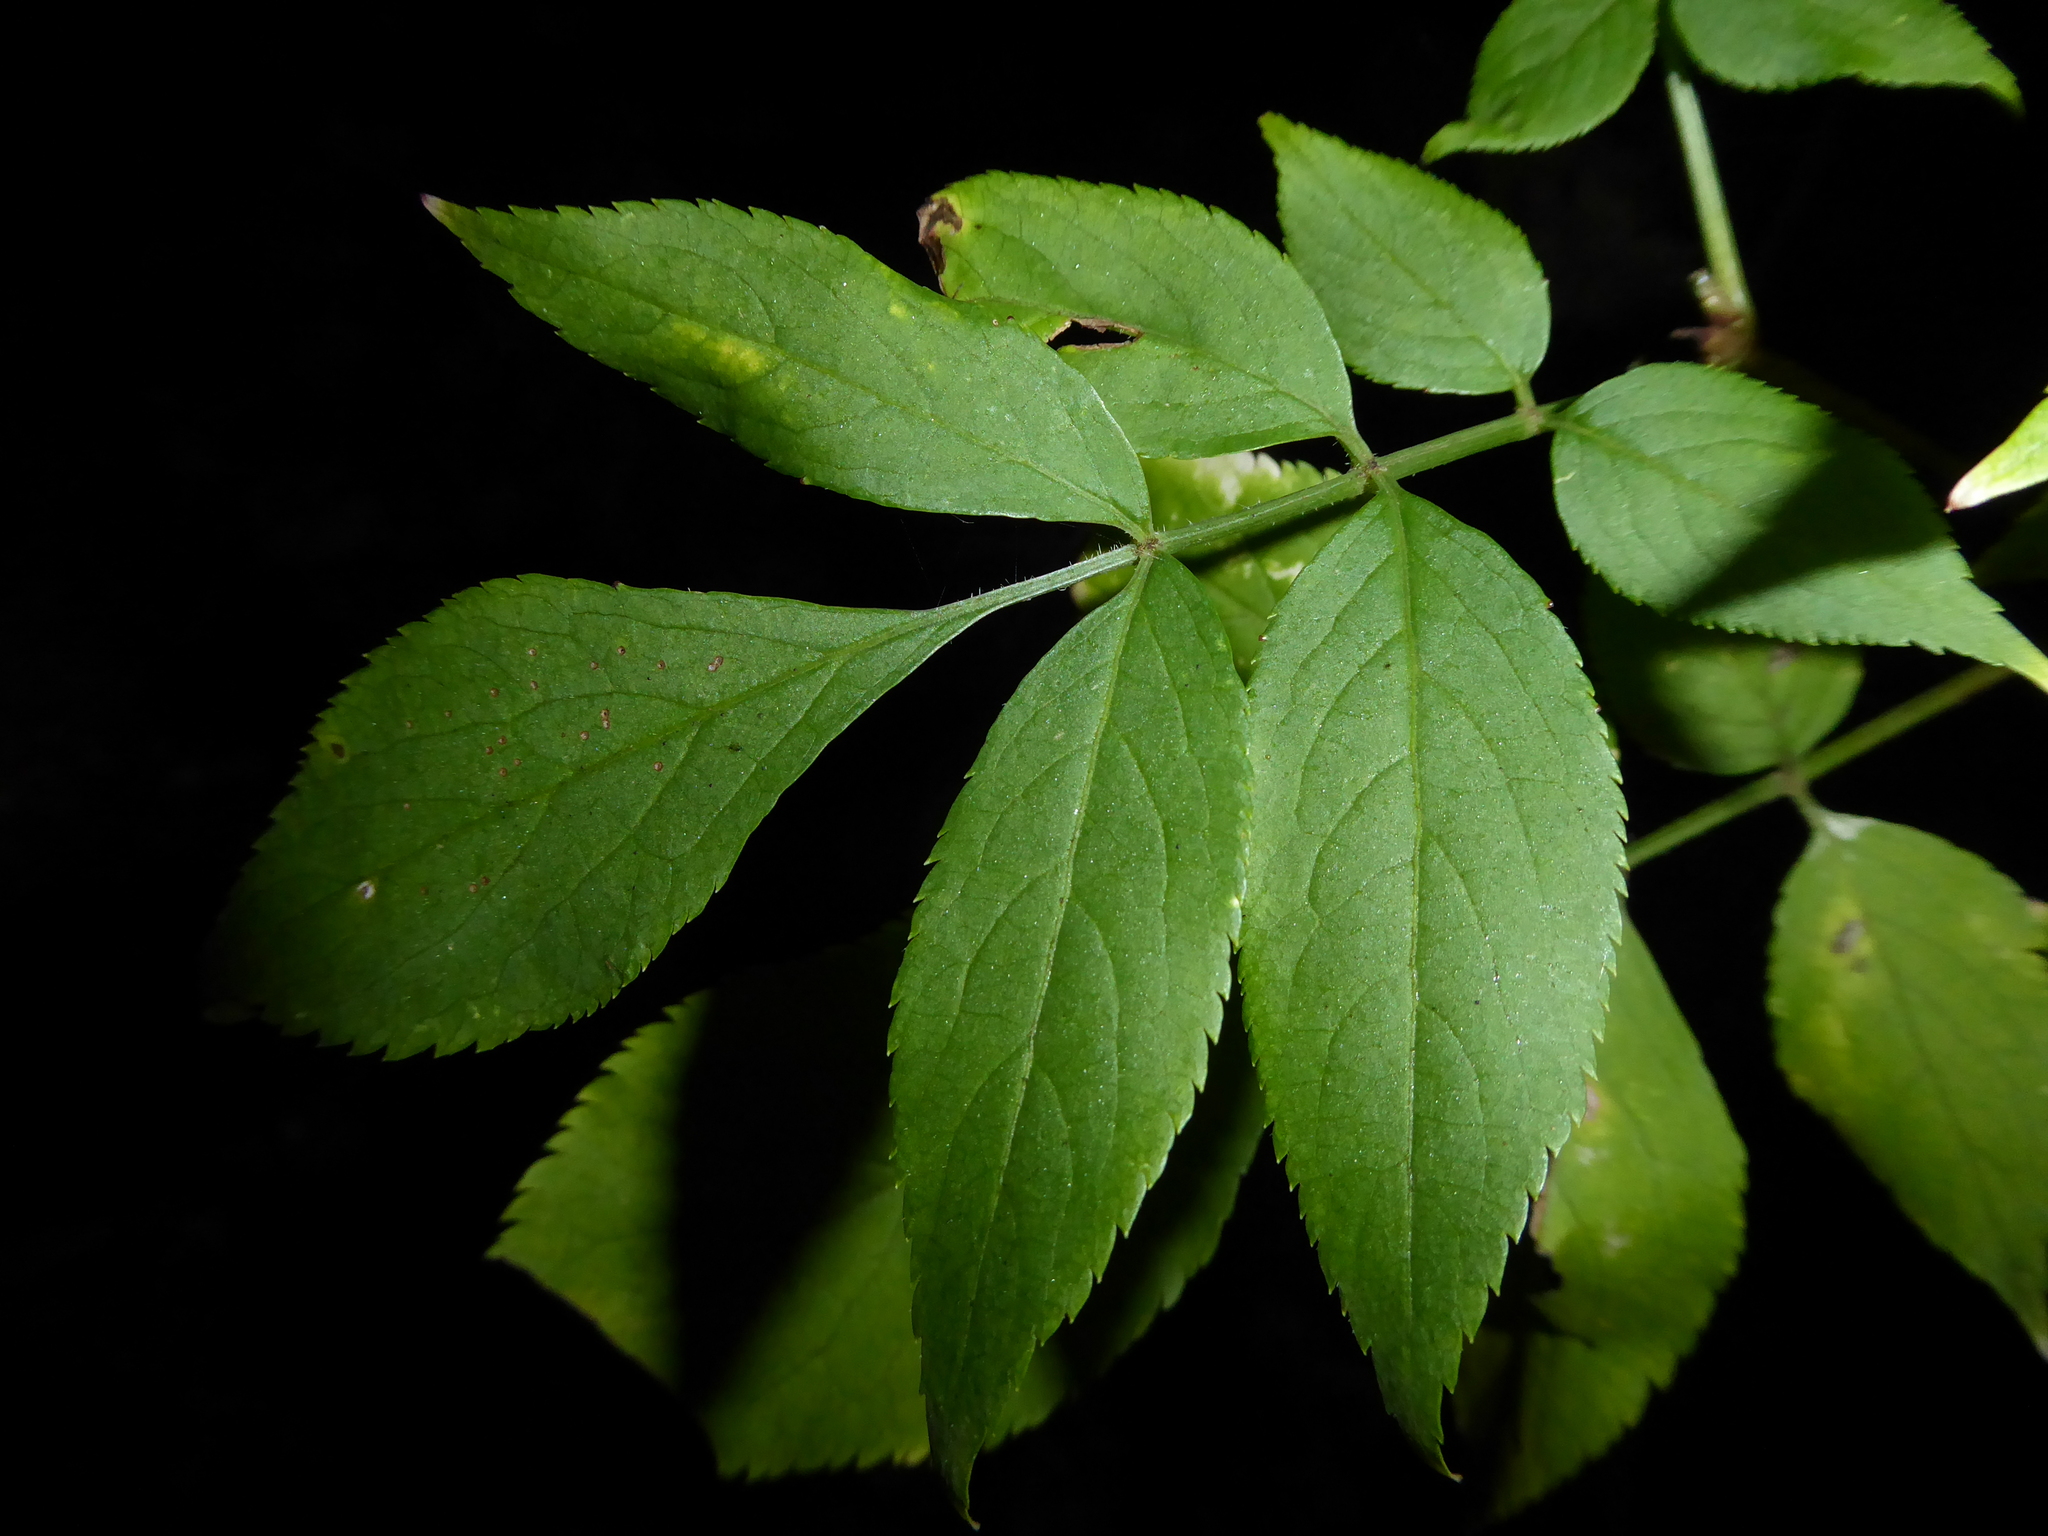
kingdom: Plantae
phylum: Tracheophyta
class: Magnoliopsida
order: Dipsacales
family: Viburnaceae
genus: Sambucus
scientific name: Sambucus nigra
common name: Elder
